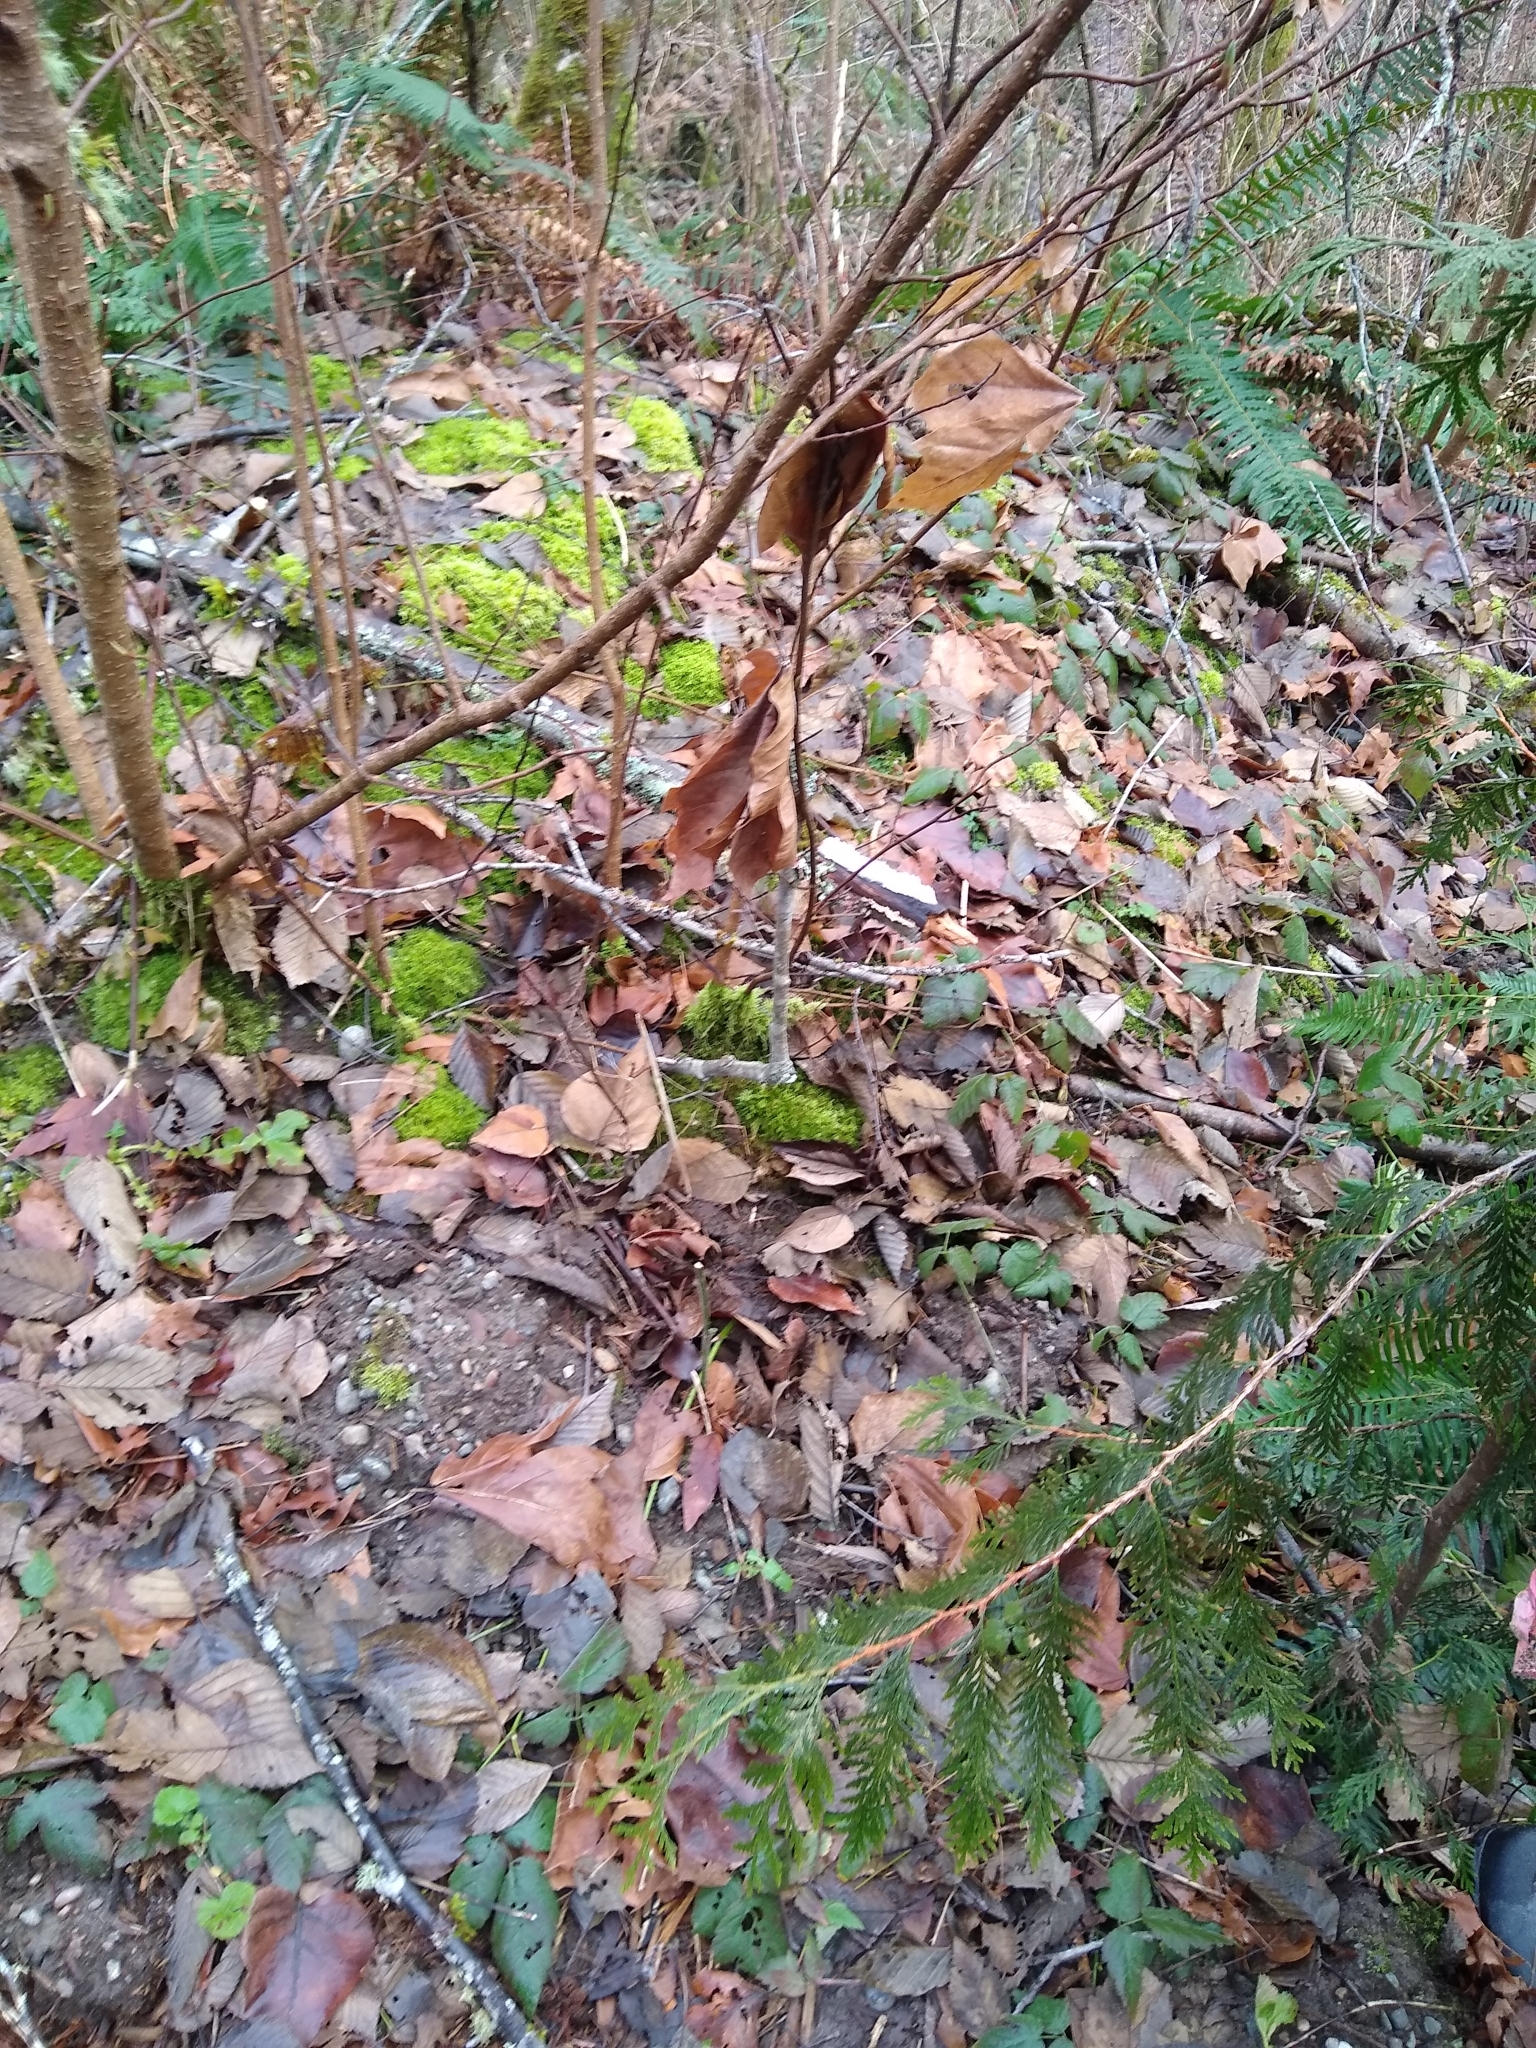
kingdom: Fungi
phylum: Basidiomycota
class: Agaricomycetes
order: Auriculariales
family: Auriculariaceae
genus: Exidiopsis
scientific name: Exidiopsis effusa
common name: Hair ice crust
